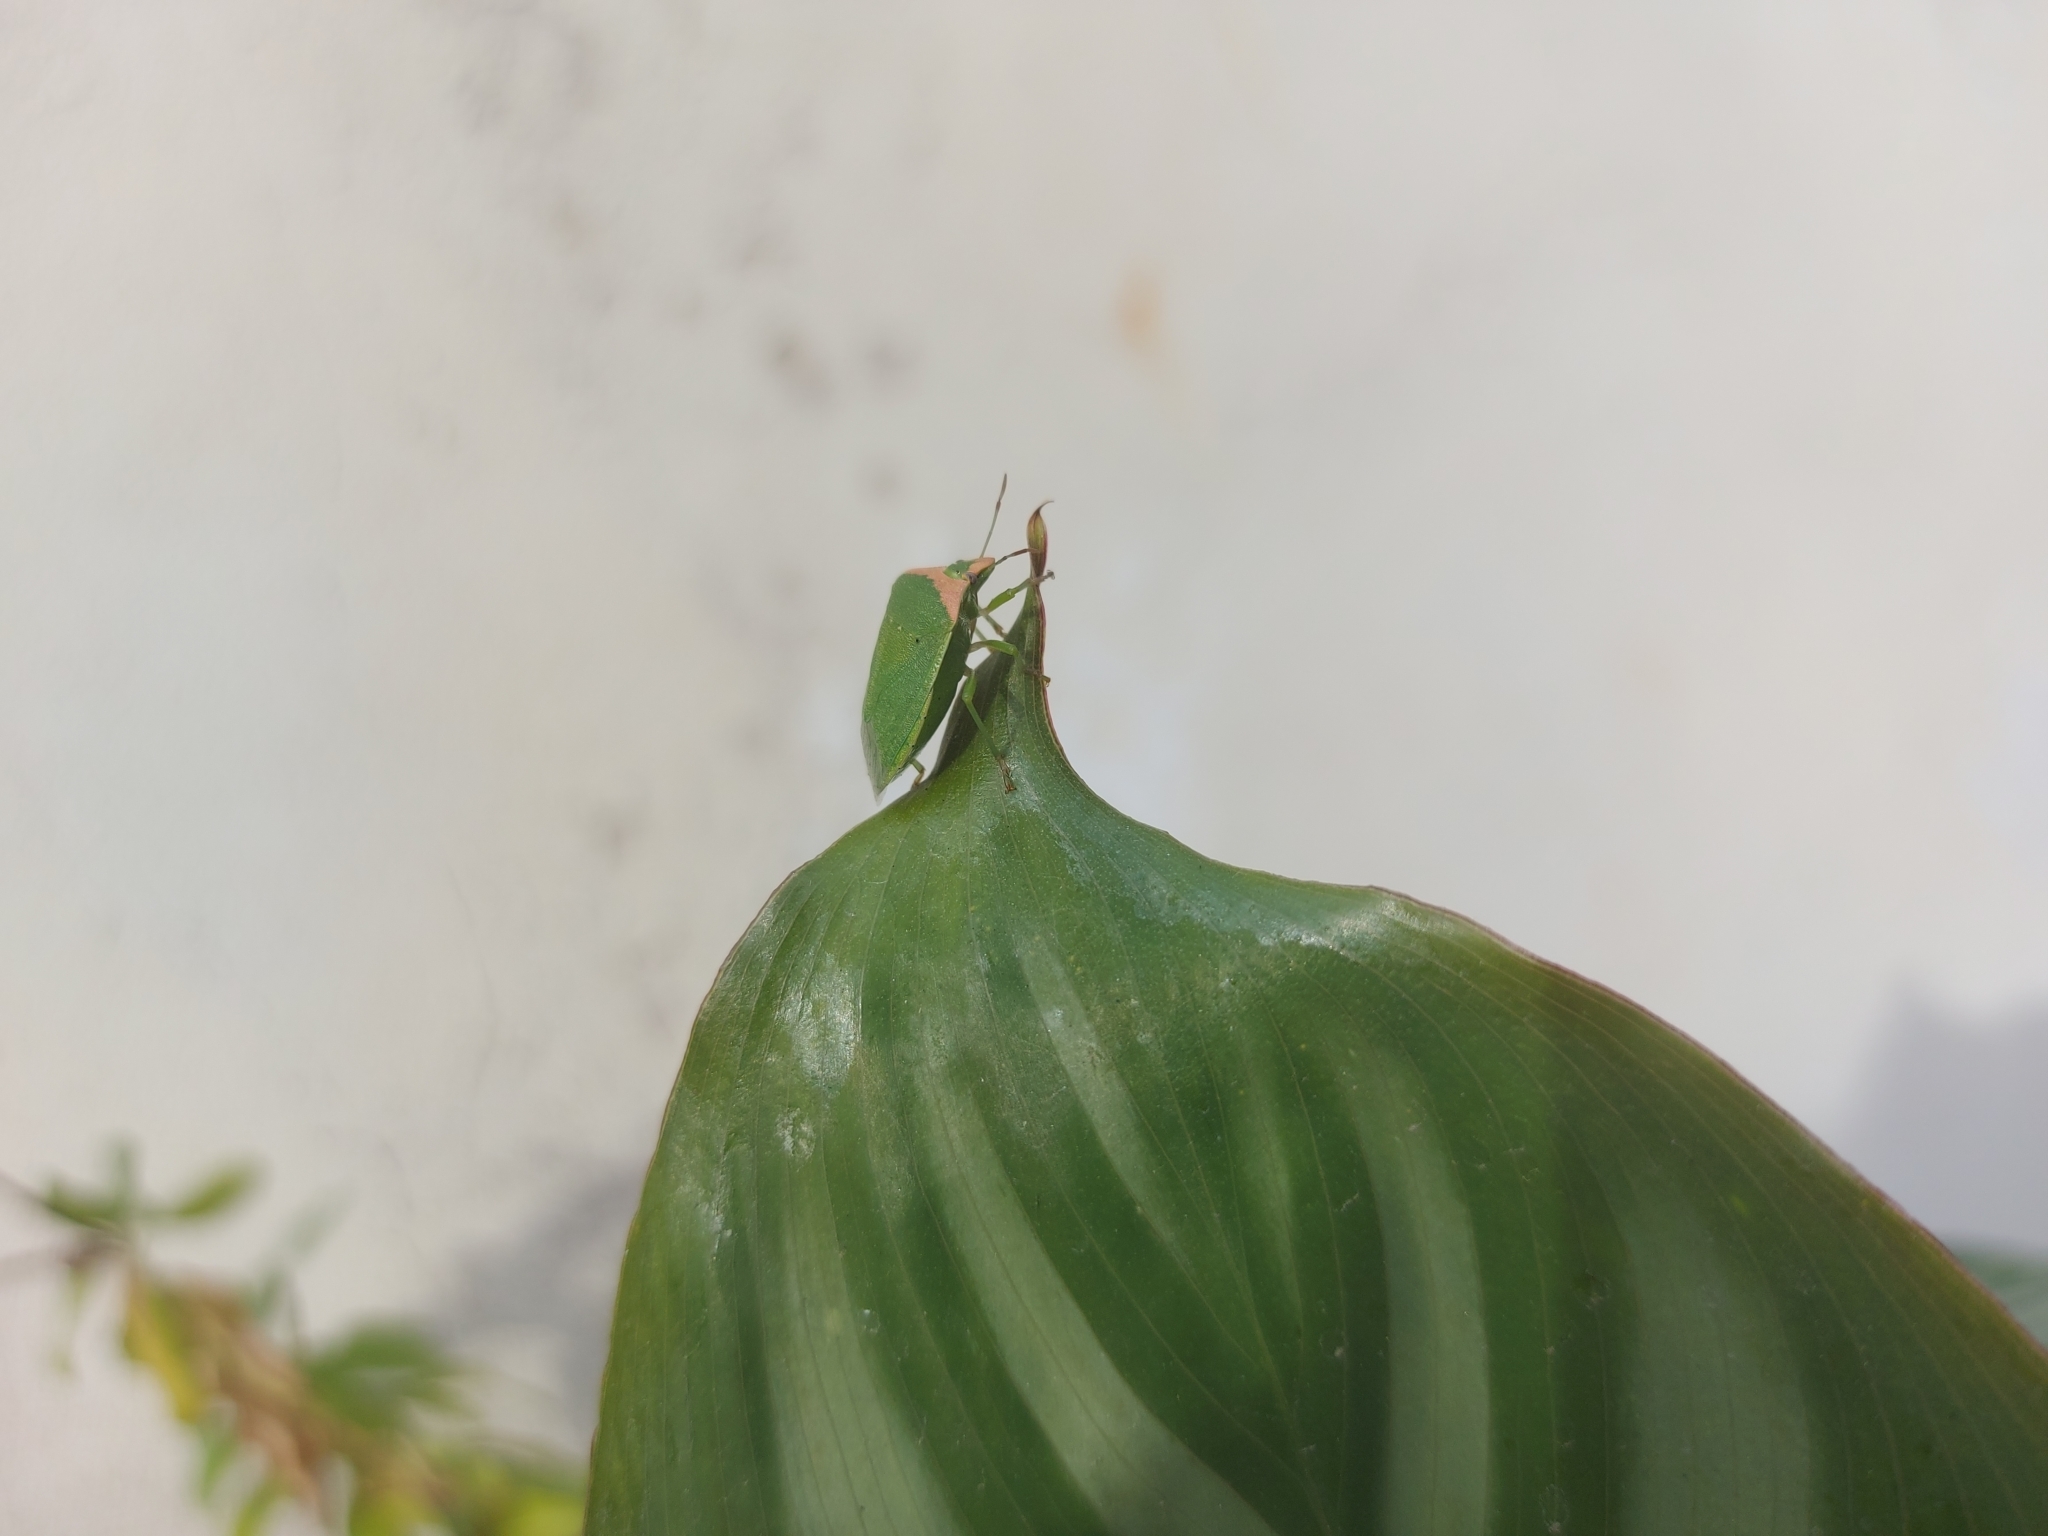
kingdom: Animalia
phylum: Arthropoda
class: Insecta
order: Hemiptera
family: Pentatomidae
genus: Nezara
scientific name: Nezara viridula
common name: Southern green stink bug
